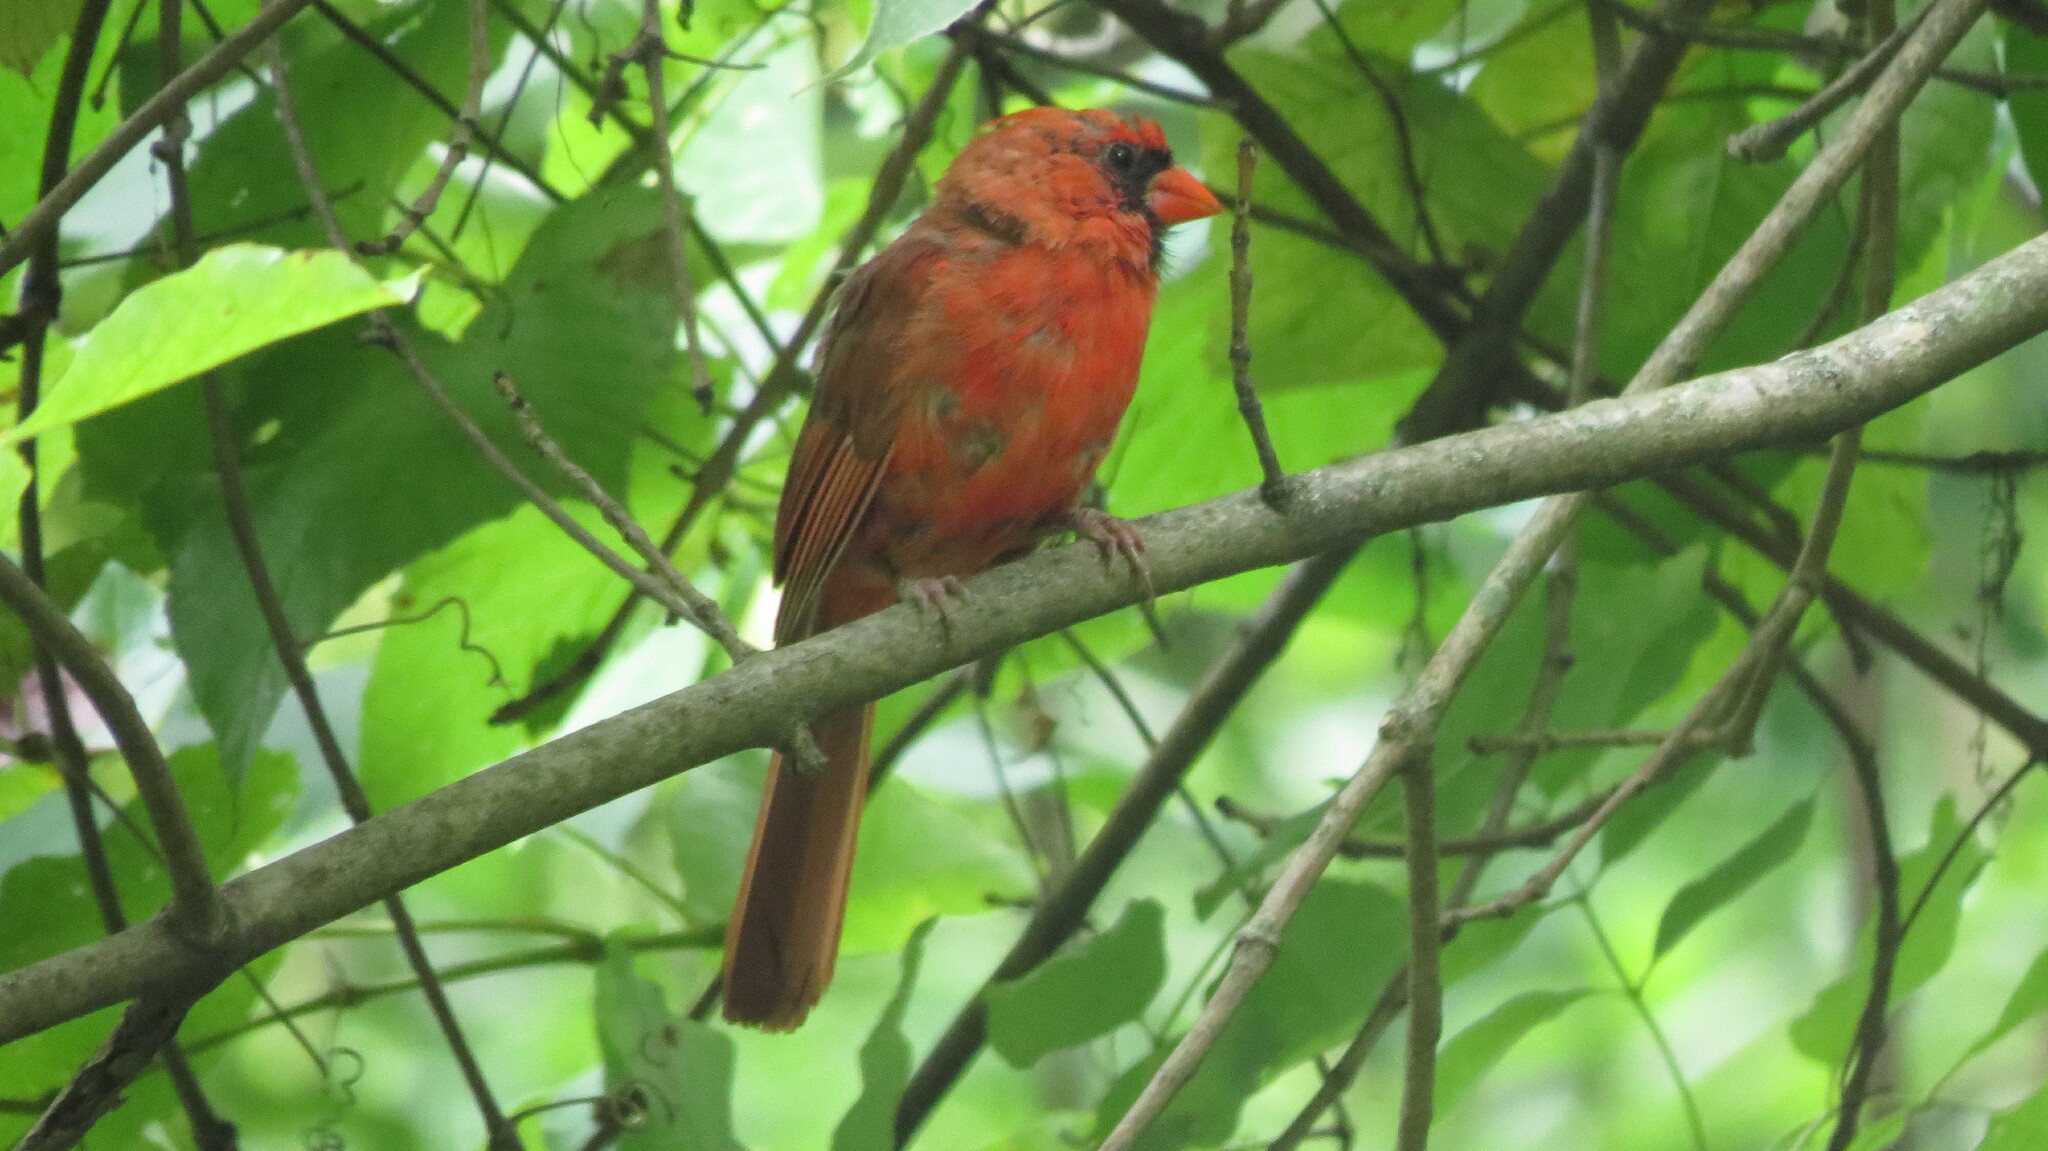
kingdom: Animalia
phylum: Chordata
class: Aves
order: Passeriformes
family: Cardinalidae
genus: Cardinalis
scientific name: Cardinalis cardinalis
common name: Northern cardinal
